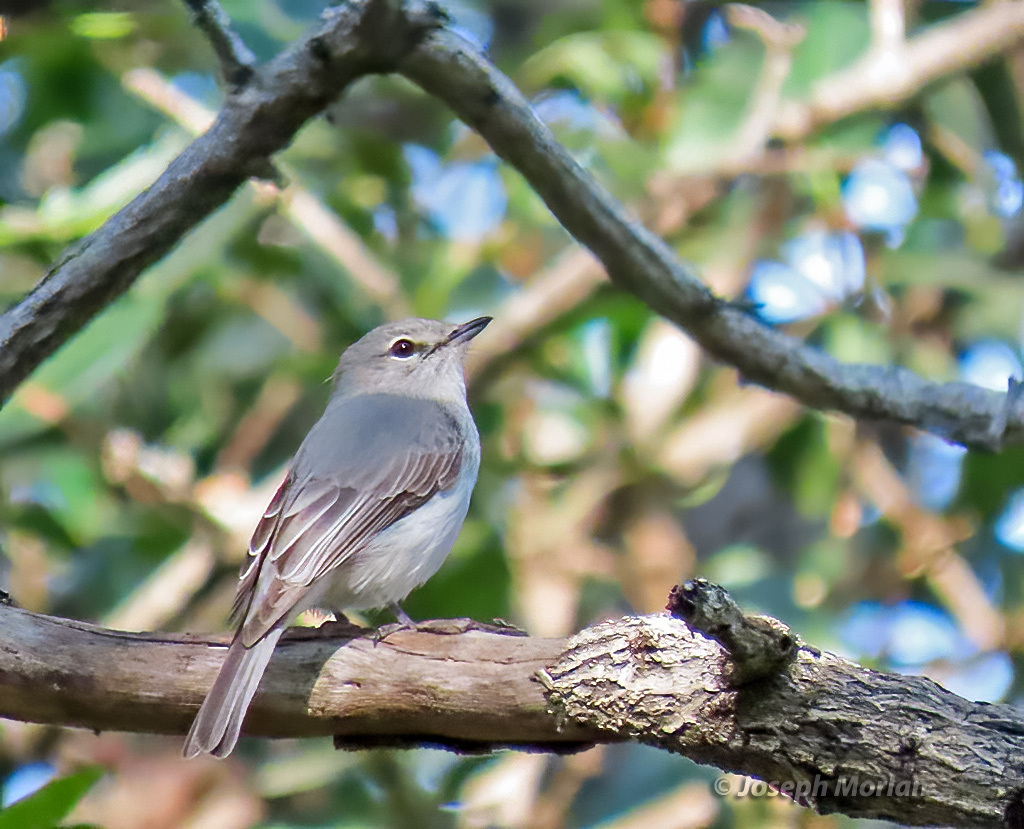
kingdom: Animalia
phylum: Chordata
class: Aves
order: Passeriformes
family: Muscicapidae
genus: Muscicapa
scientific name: Muscicapa caerulescens
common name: Ashy flycatcher
